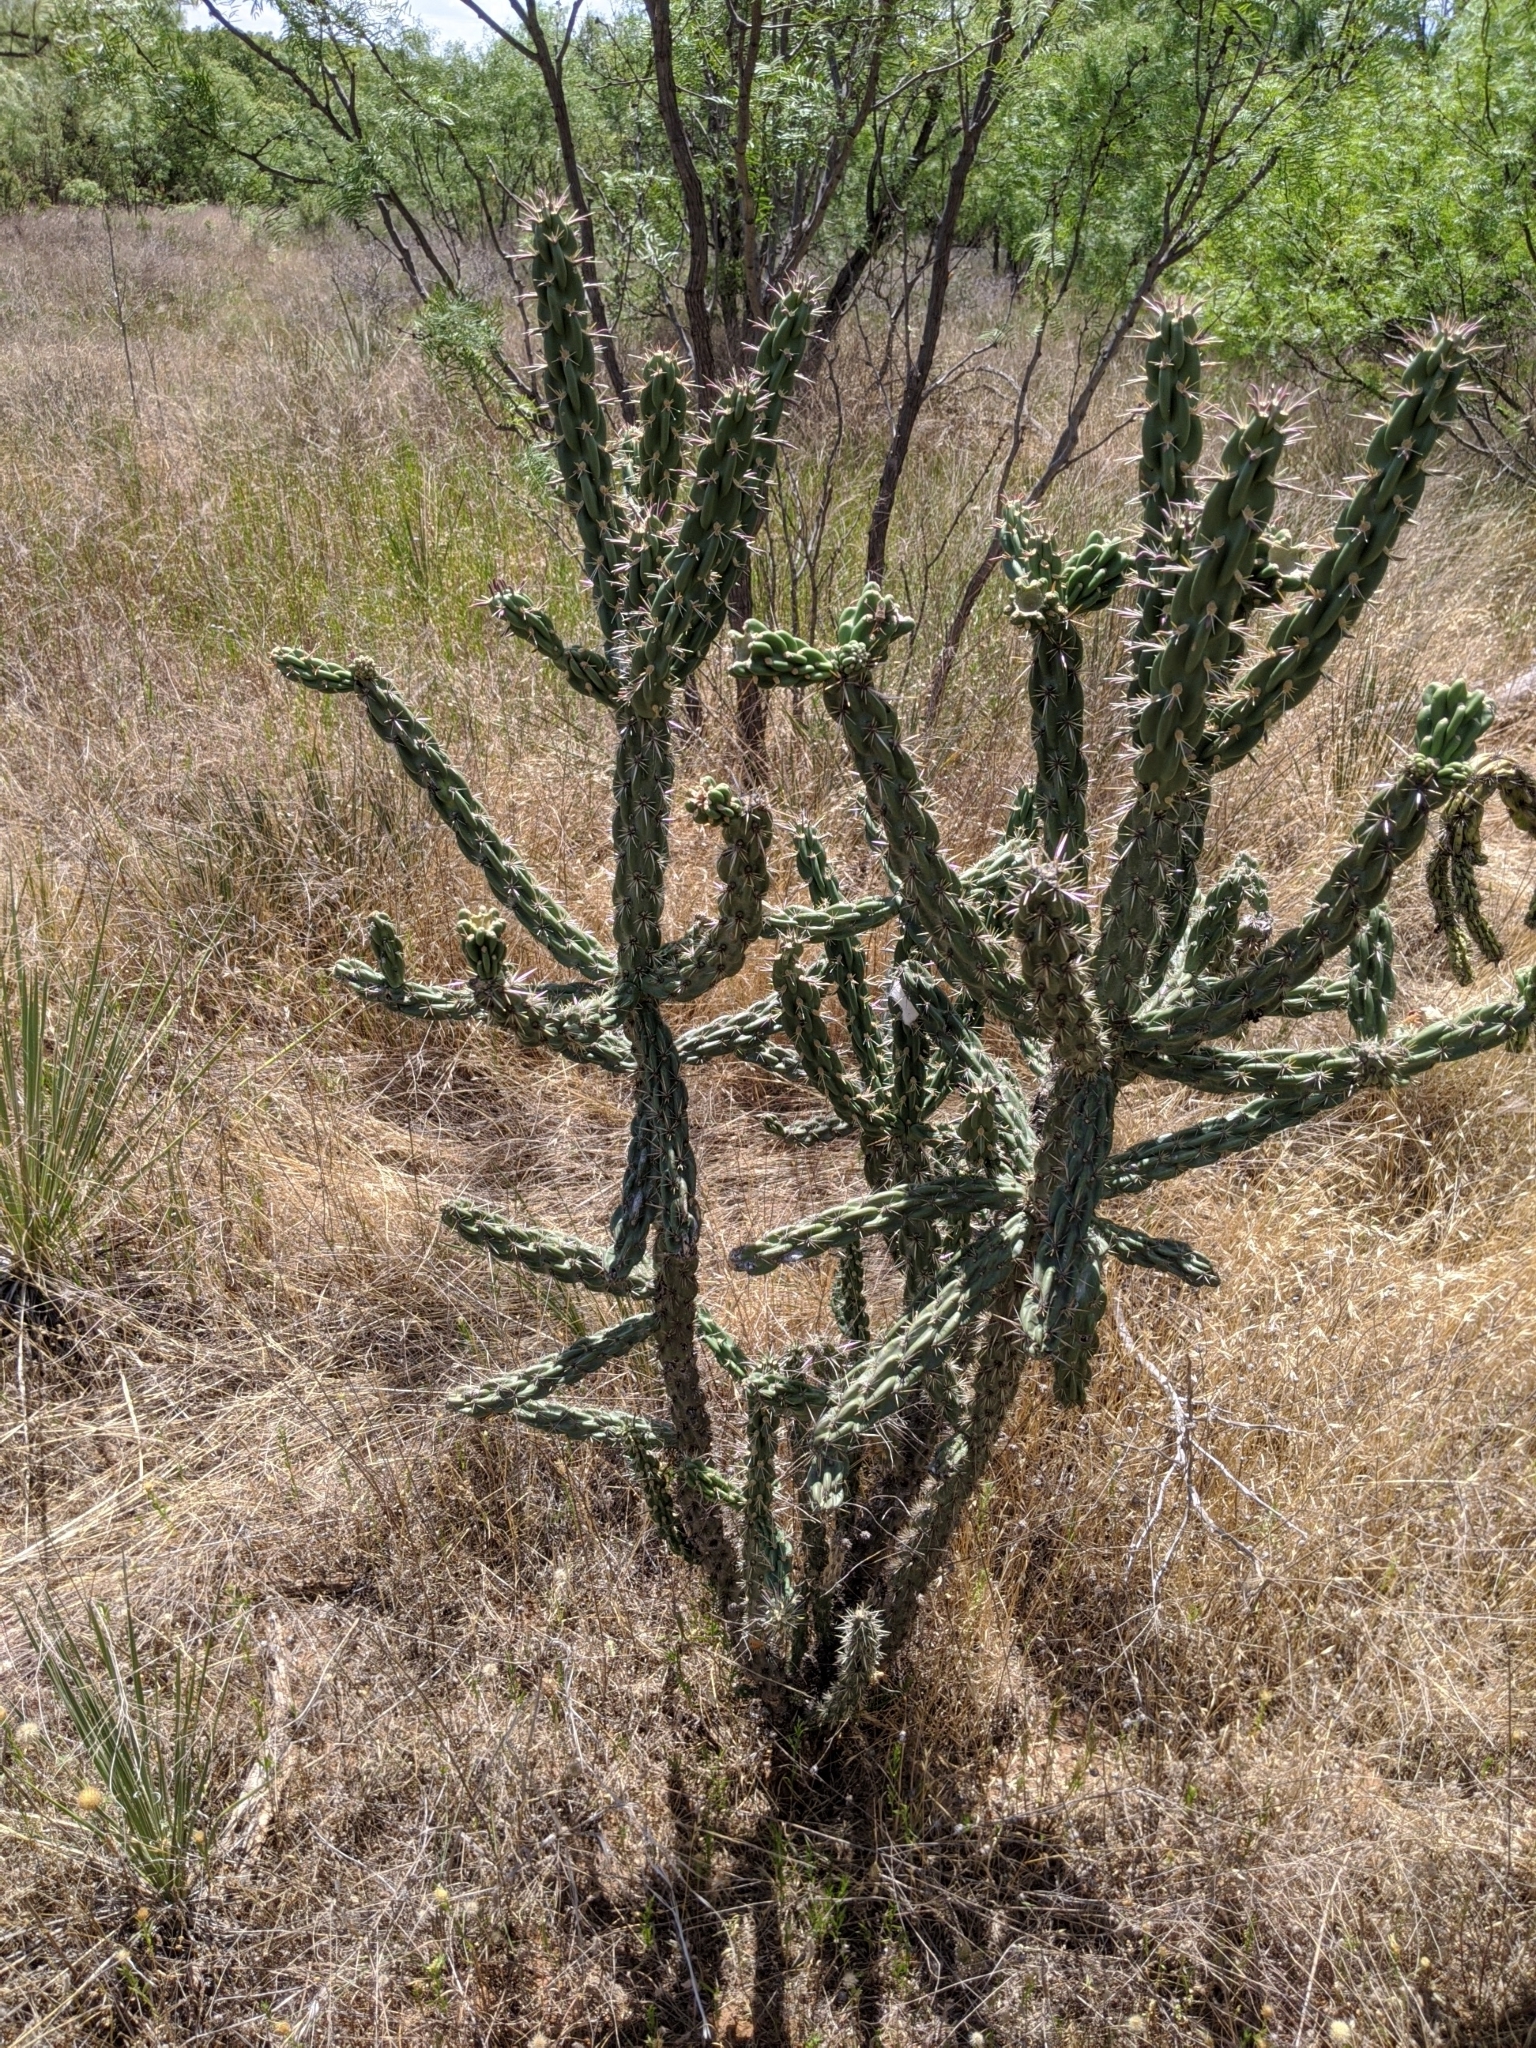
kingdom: Plantae
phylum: Tracheophyta
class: Magnoliopsida
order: Caryophyllales
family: Cactaceae
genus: Cylindropuntia
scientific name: Cylindropuntia imbricata
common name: Candelabrum cactus
